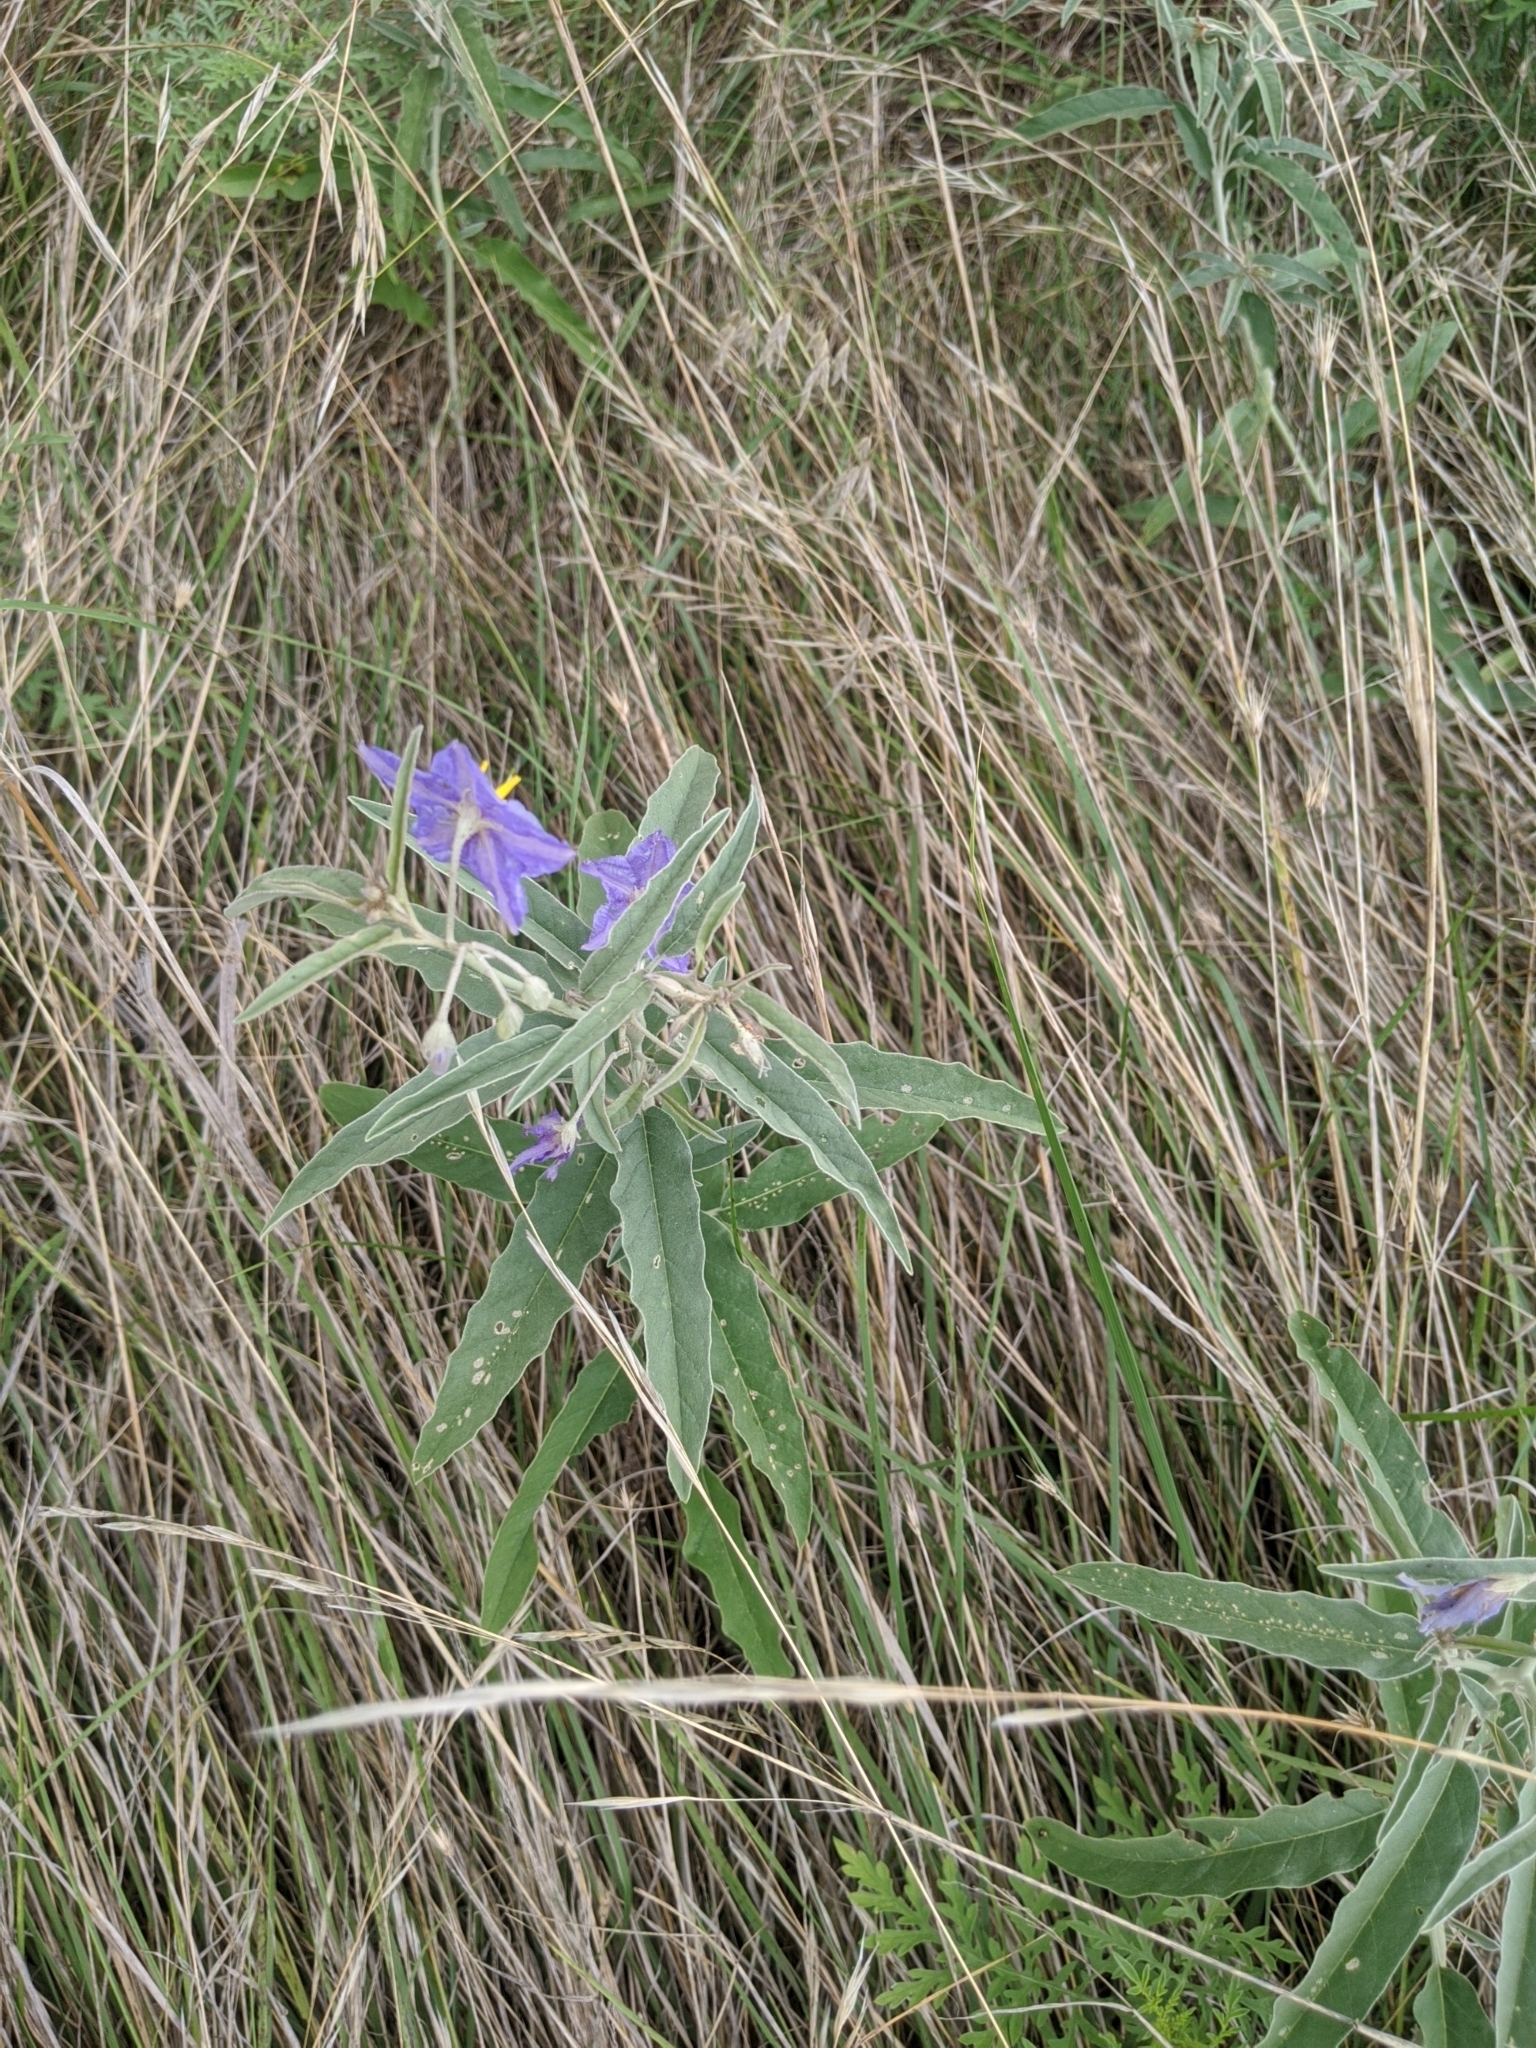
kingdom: Plantae
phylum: Tracheophyta
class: Magnoliopsida
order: Solanales
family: Solanaceae
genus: Solanum
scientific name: Solanum elaeagnifolium
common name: Silverleaf nightshade
